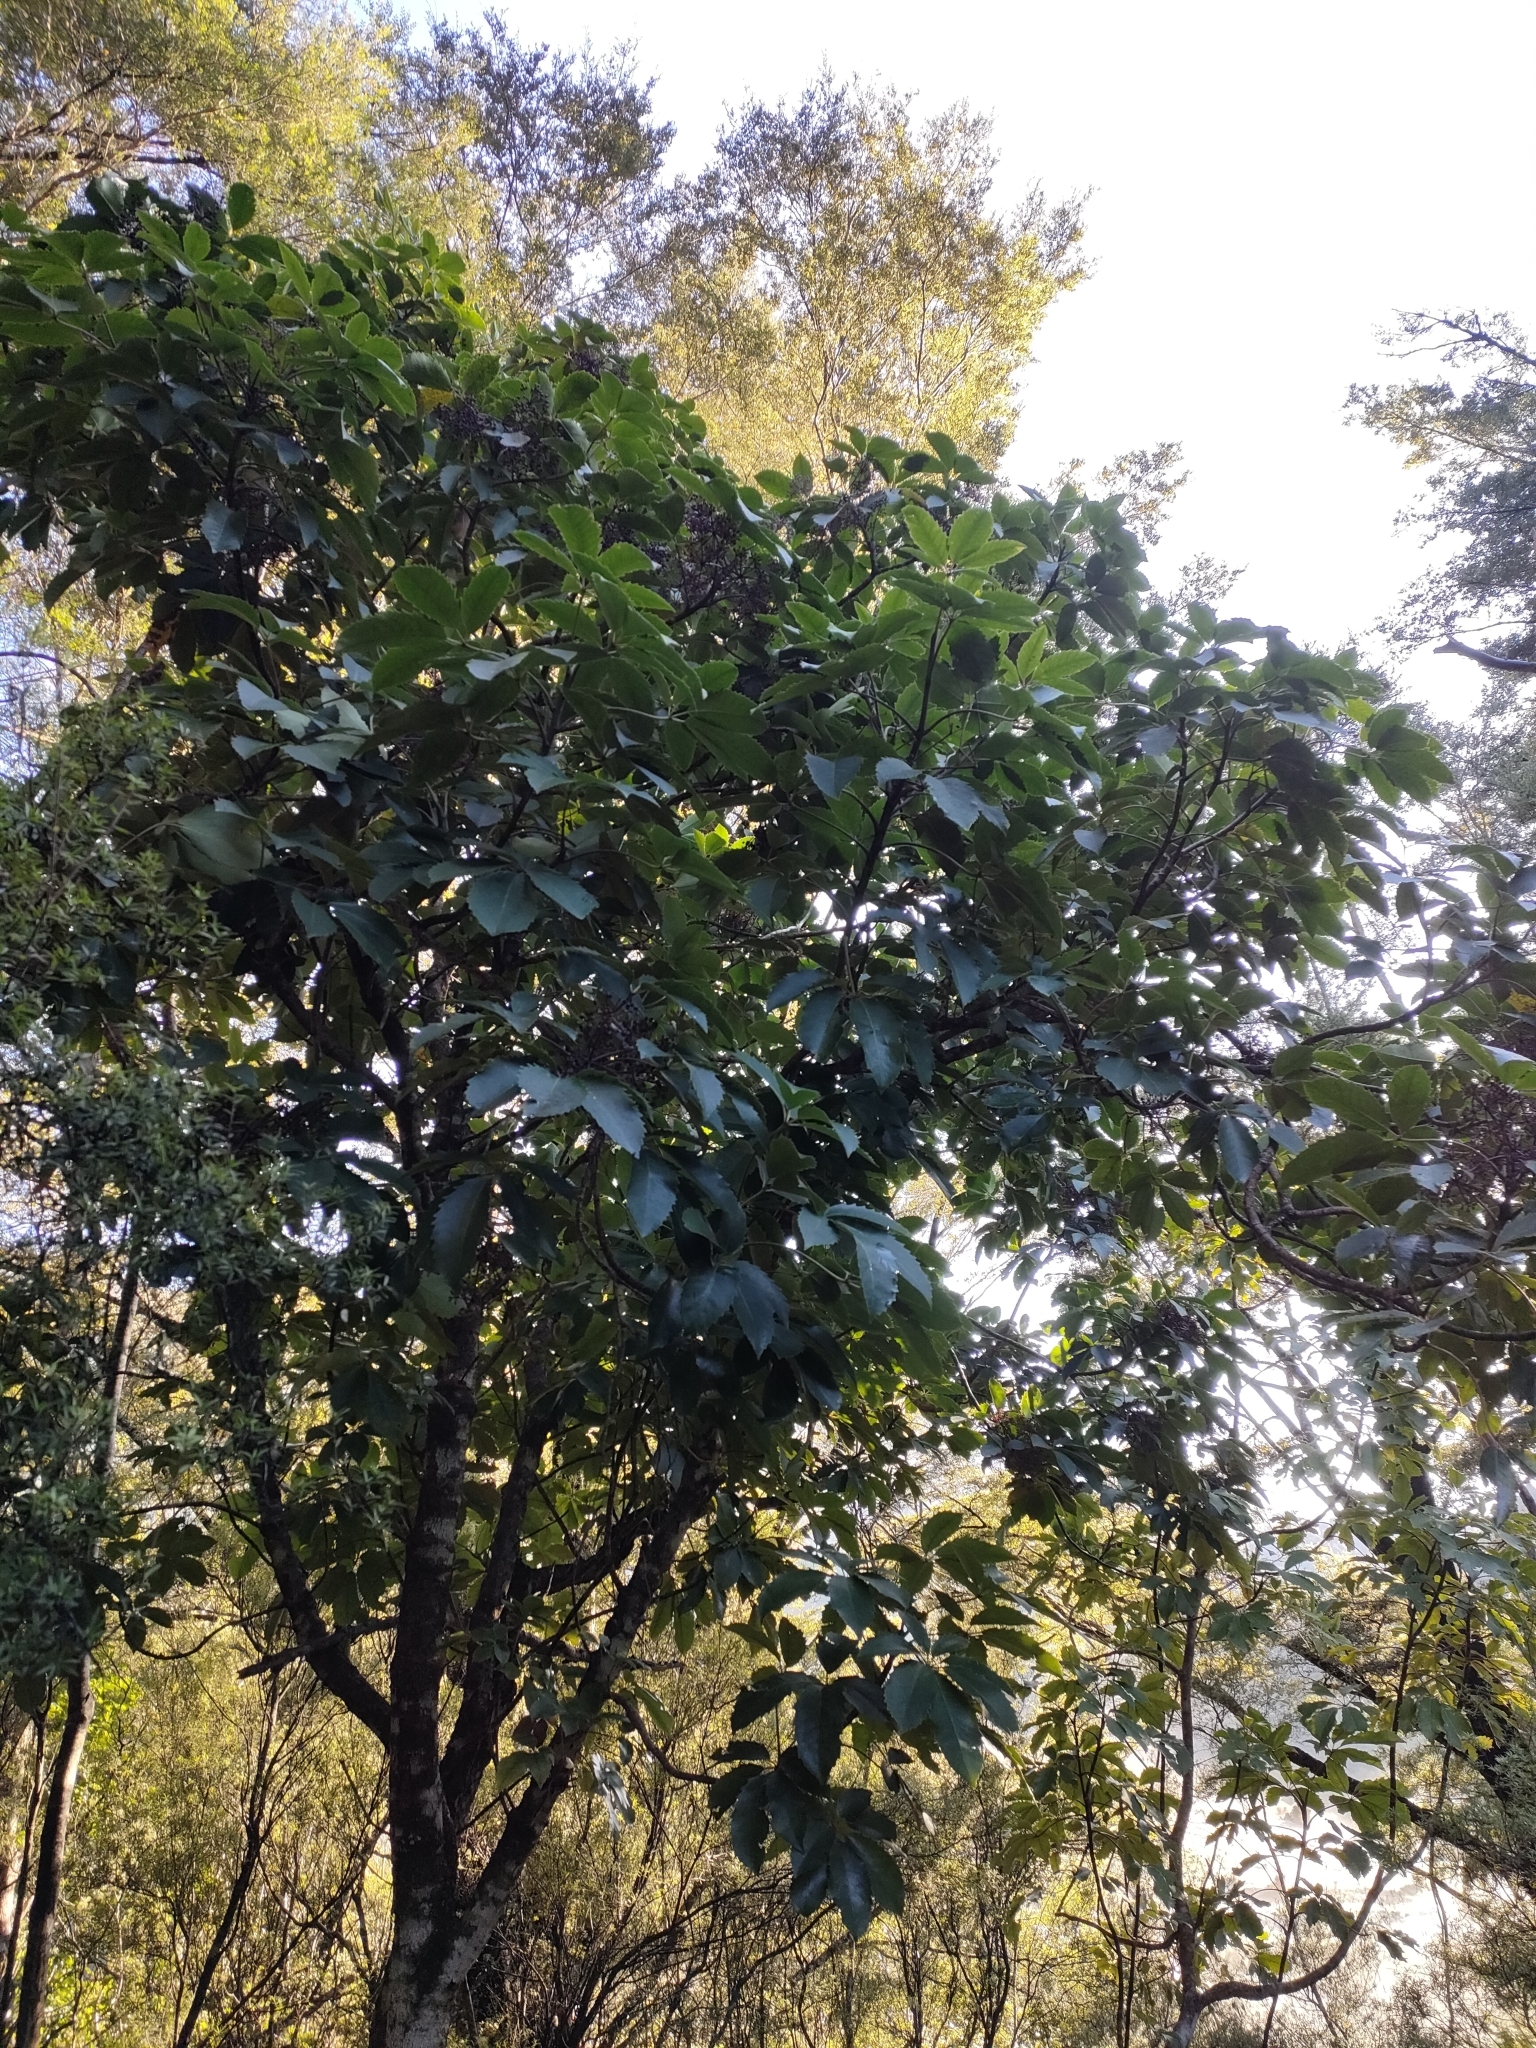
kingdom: Plantae
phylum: Tracheophyta
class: Magnoliopsida
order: Apiales
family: Araliaceae
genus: Neopanax
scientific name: Neopanax arboreus
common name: Five-fingers
